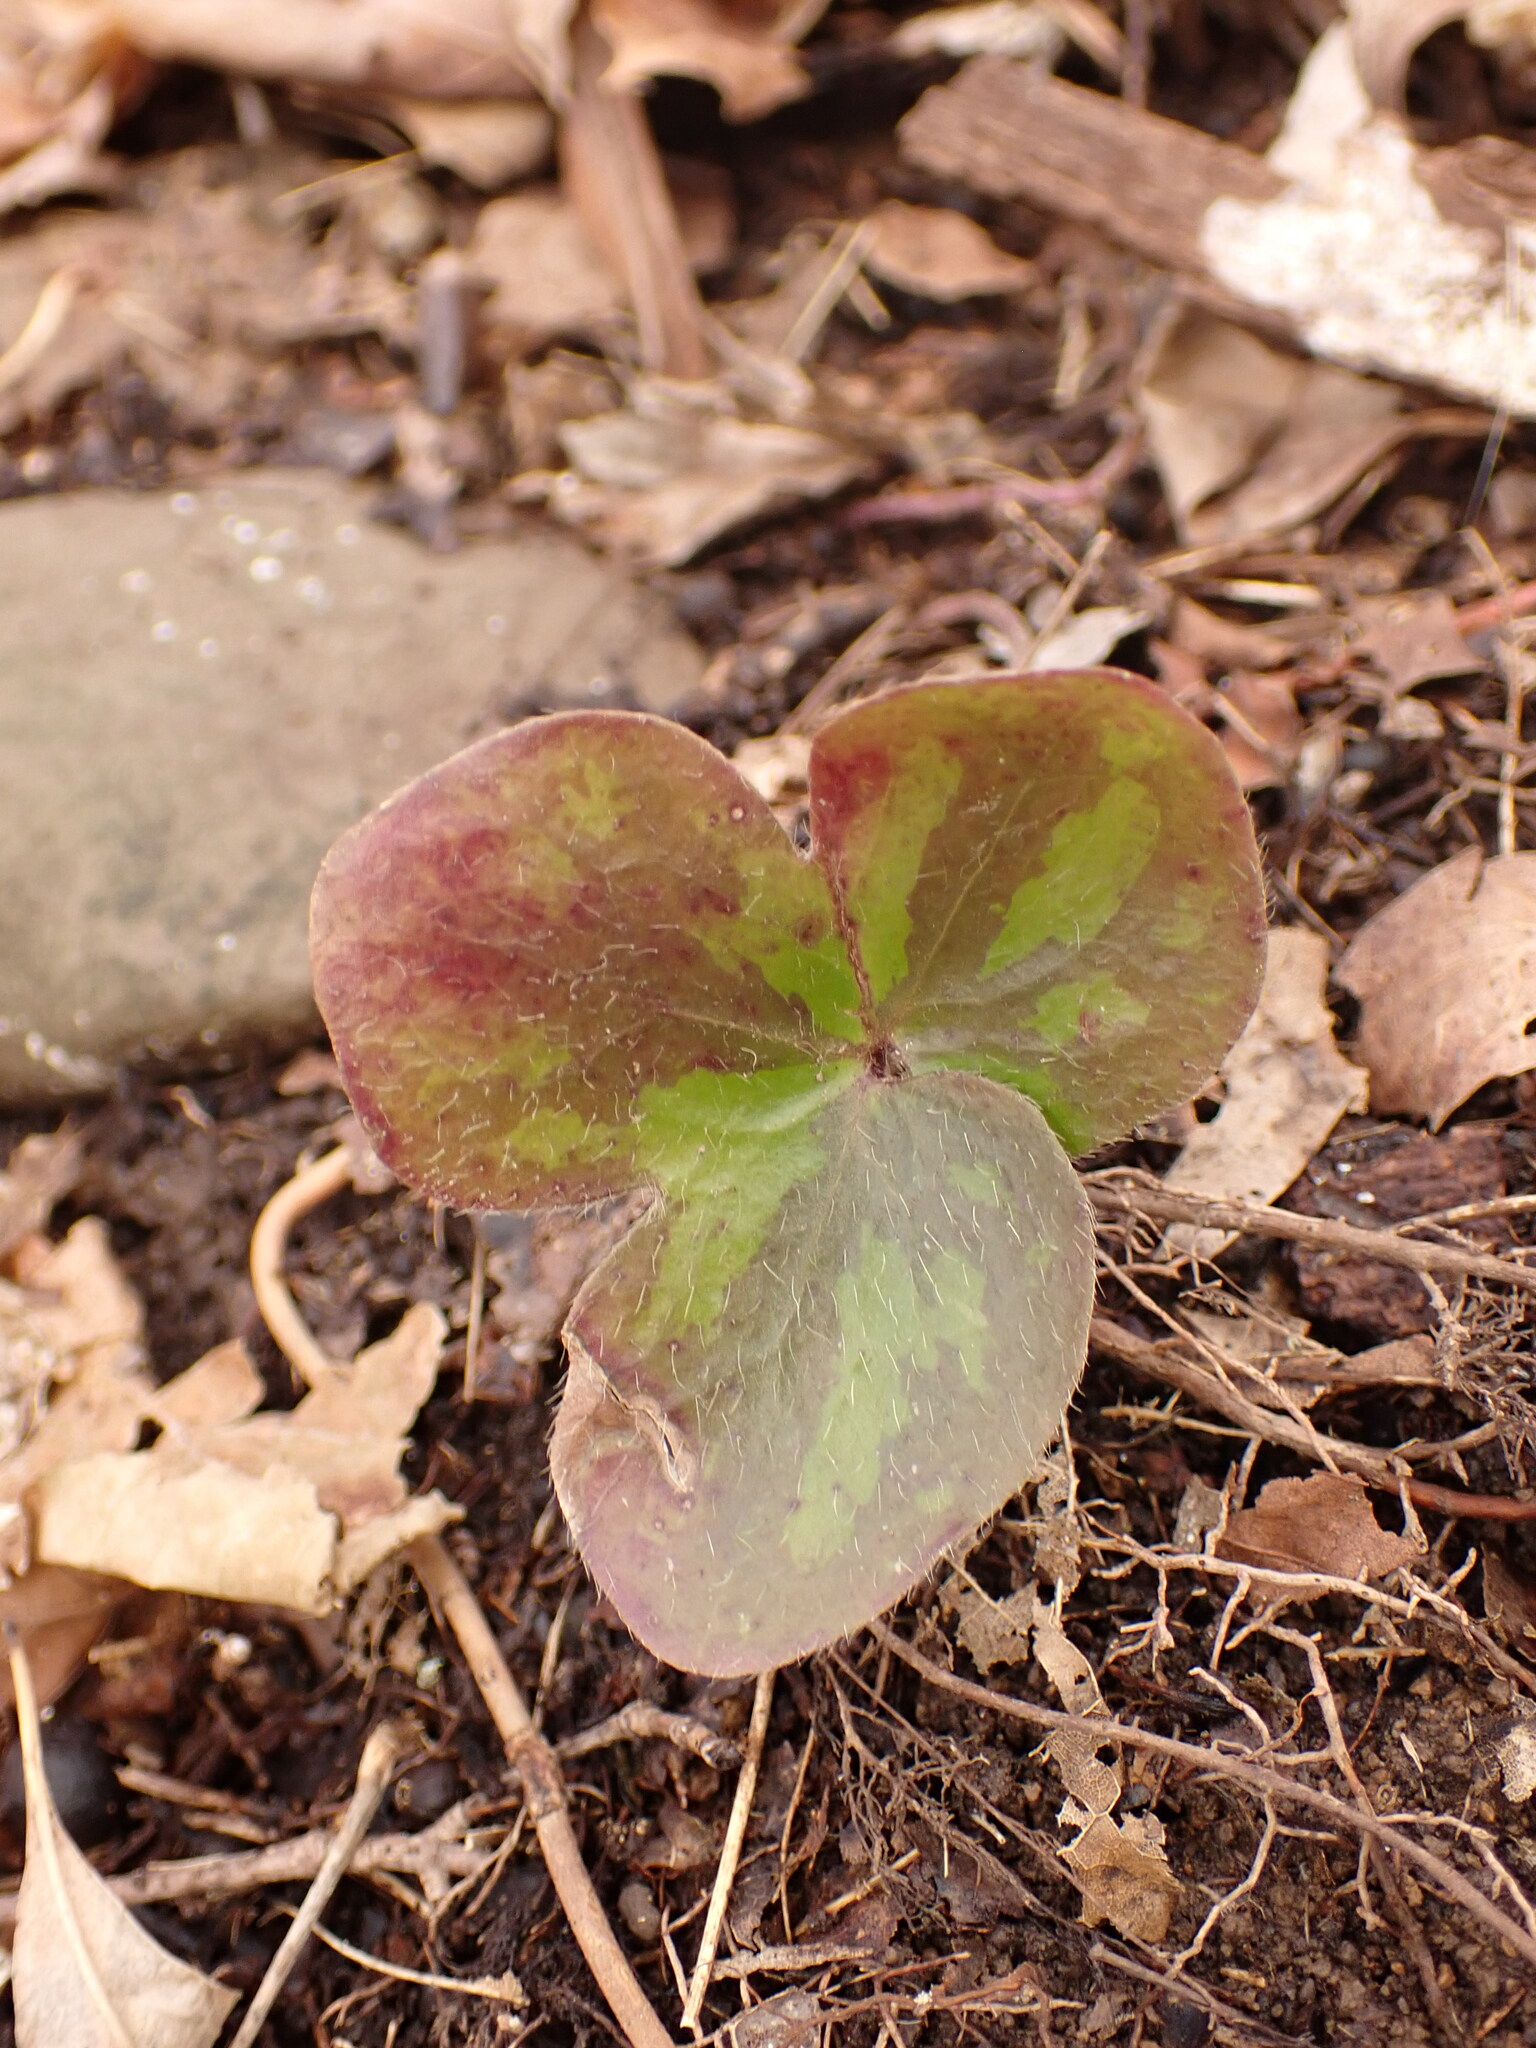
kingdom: Plantae
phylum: Tracheophyta
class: Magnoliopsida
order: Ranunculales
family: Ranunculaceae
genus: Hepatica
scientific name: Hepatica americana
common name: American hepatica
